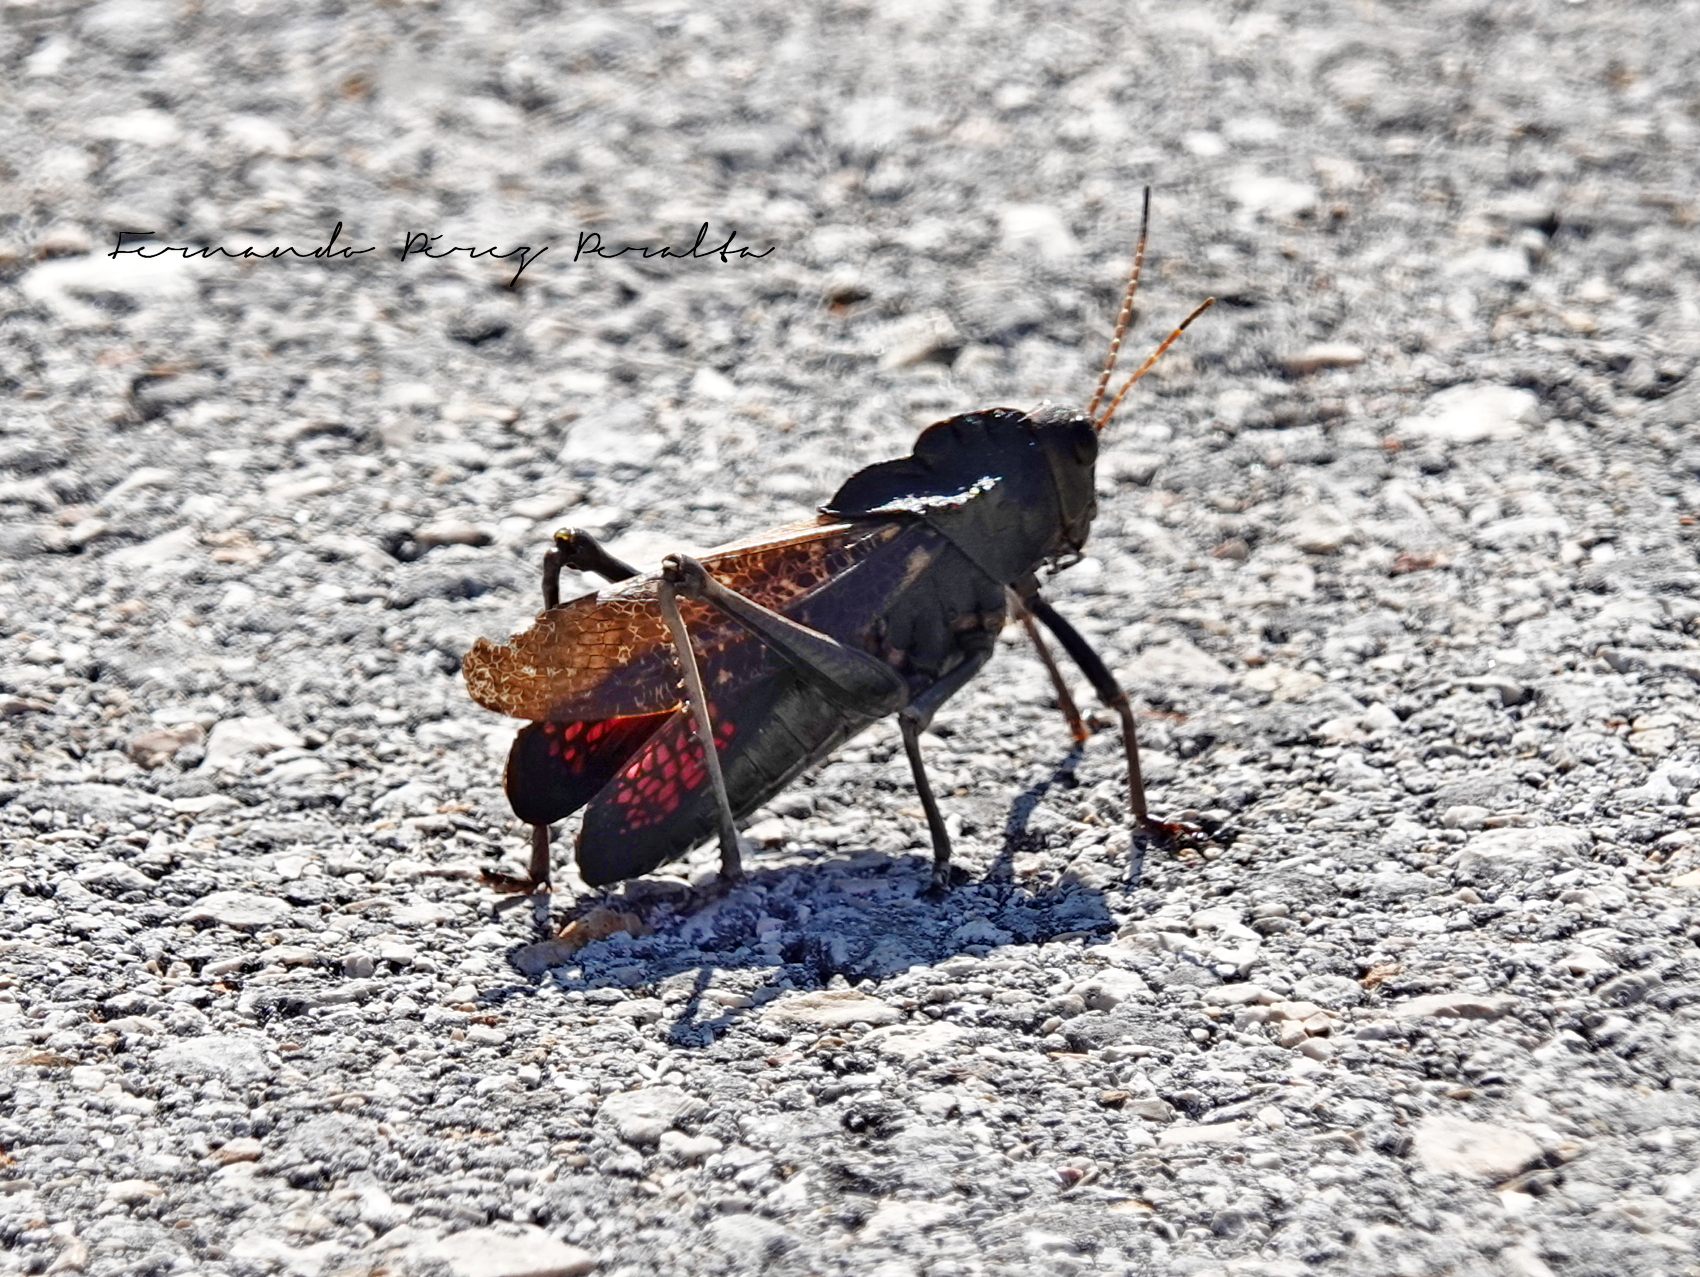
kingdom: Animalia
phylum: Arthropoda
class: Insecta
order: Orthoptera
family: Romaleidae
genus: Romalea
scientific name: Romalea
